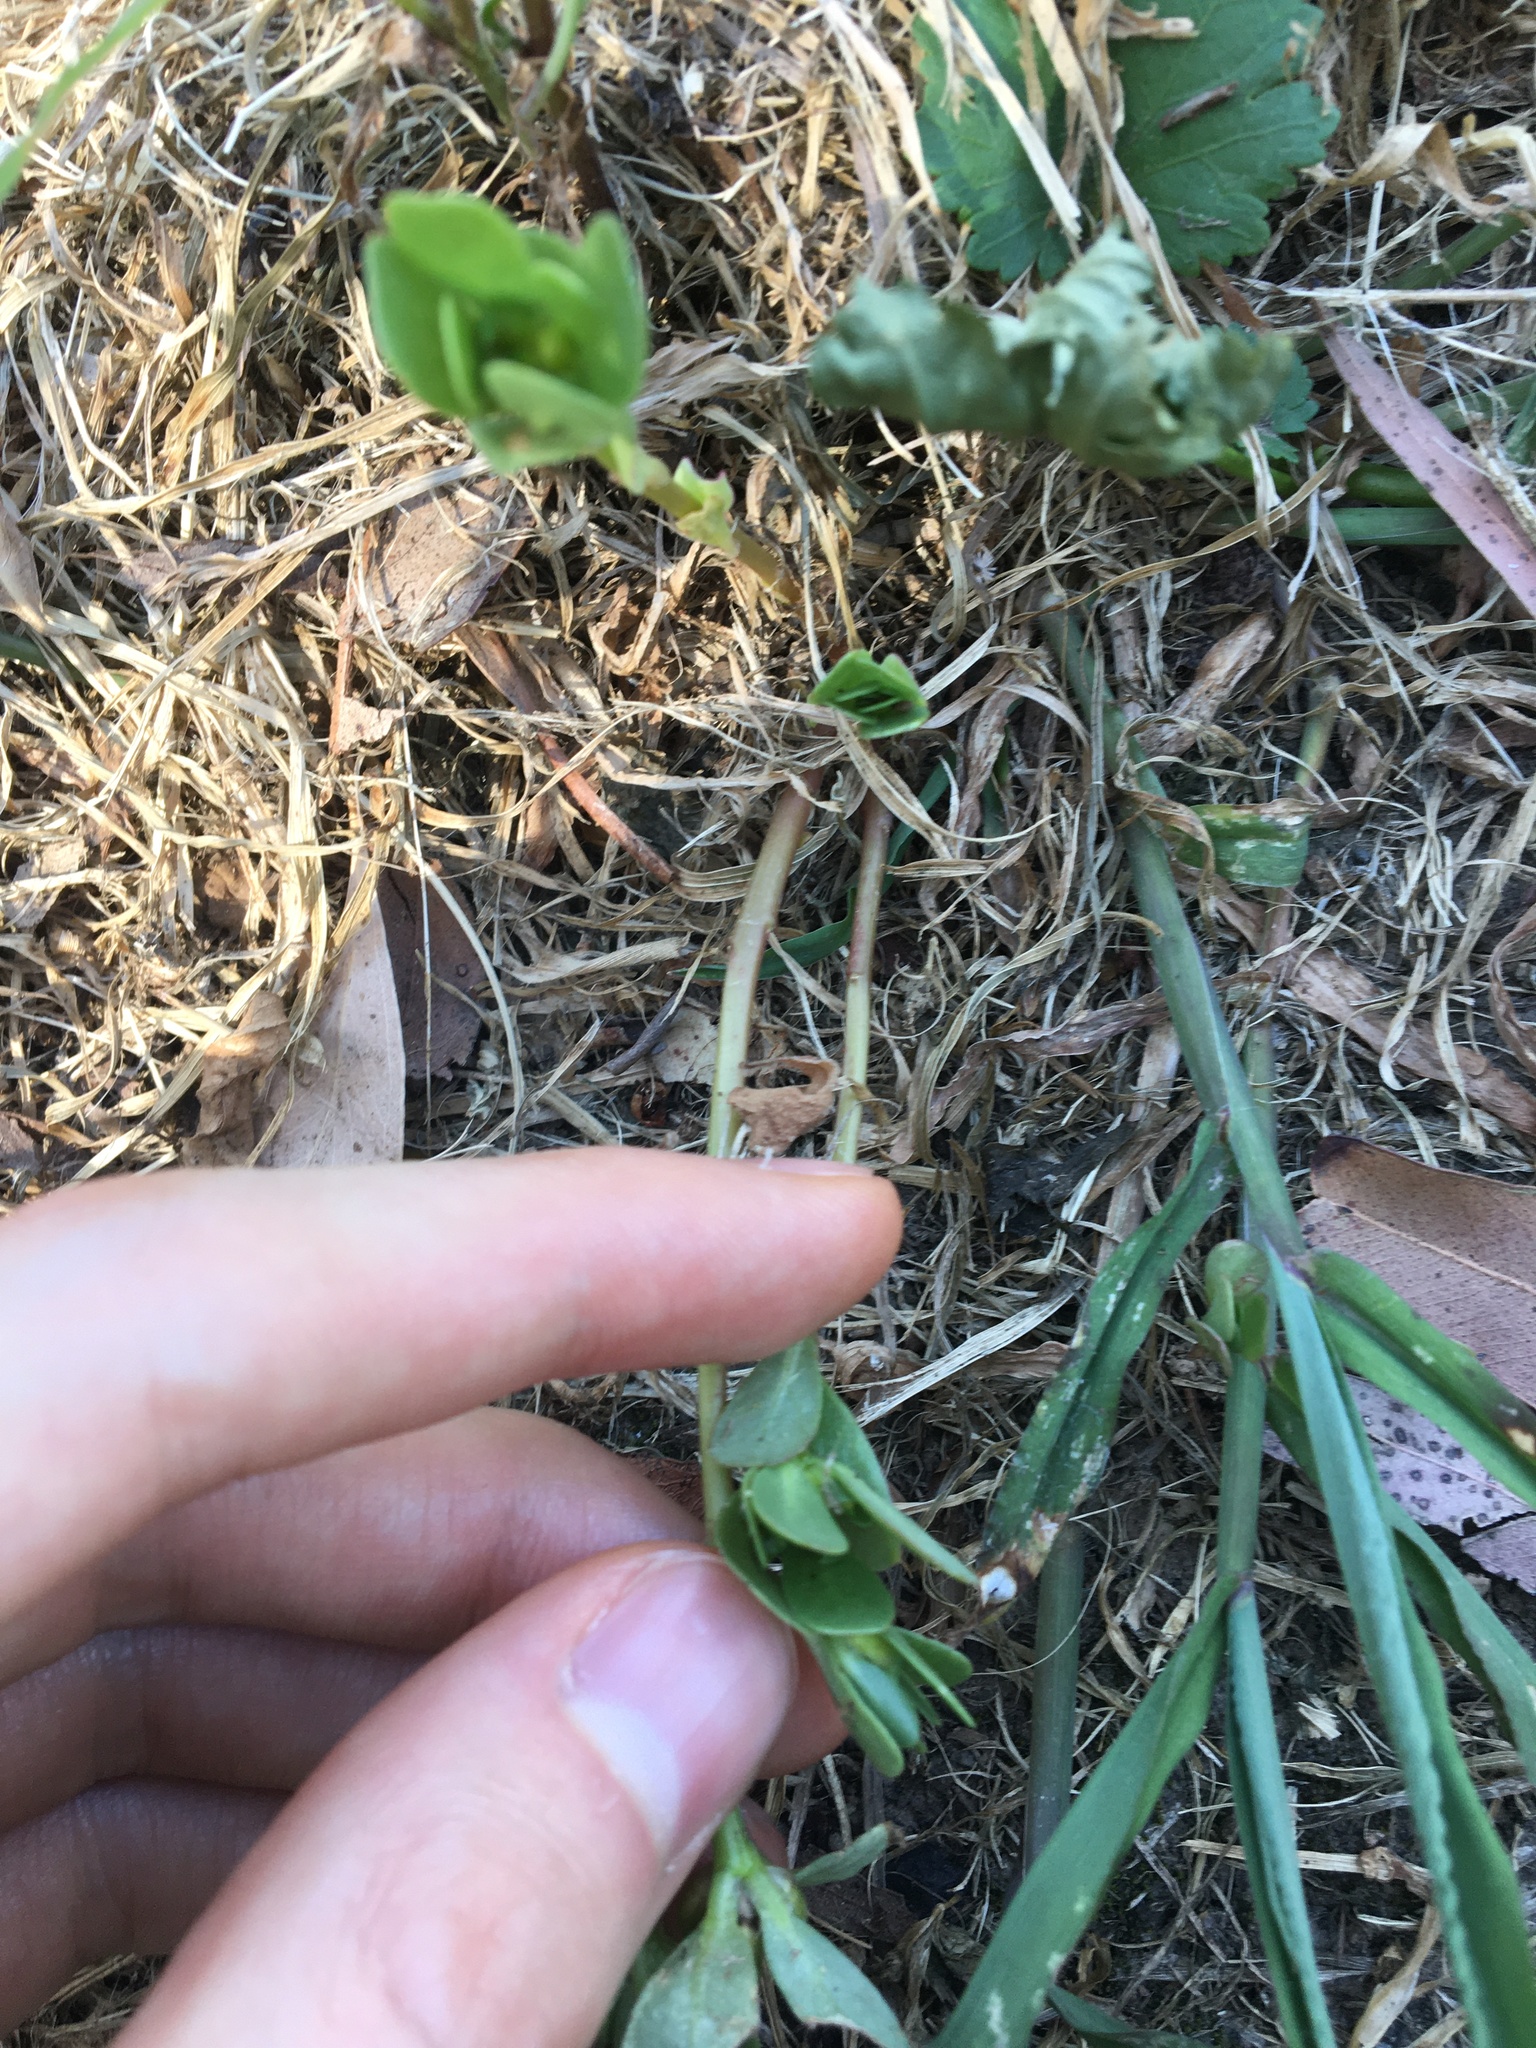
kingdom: Plantae
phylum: Tracheophyta
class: Magnoliopsida
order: Caryophyllales
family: Portulacaceae
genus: Portulaca
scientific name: Portulaca oleracea
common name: Common purslane
